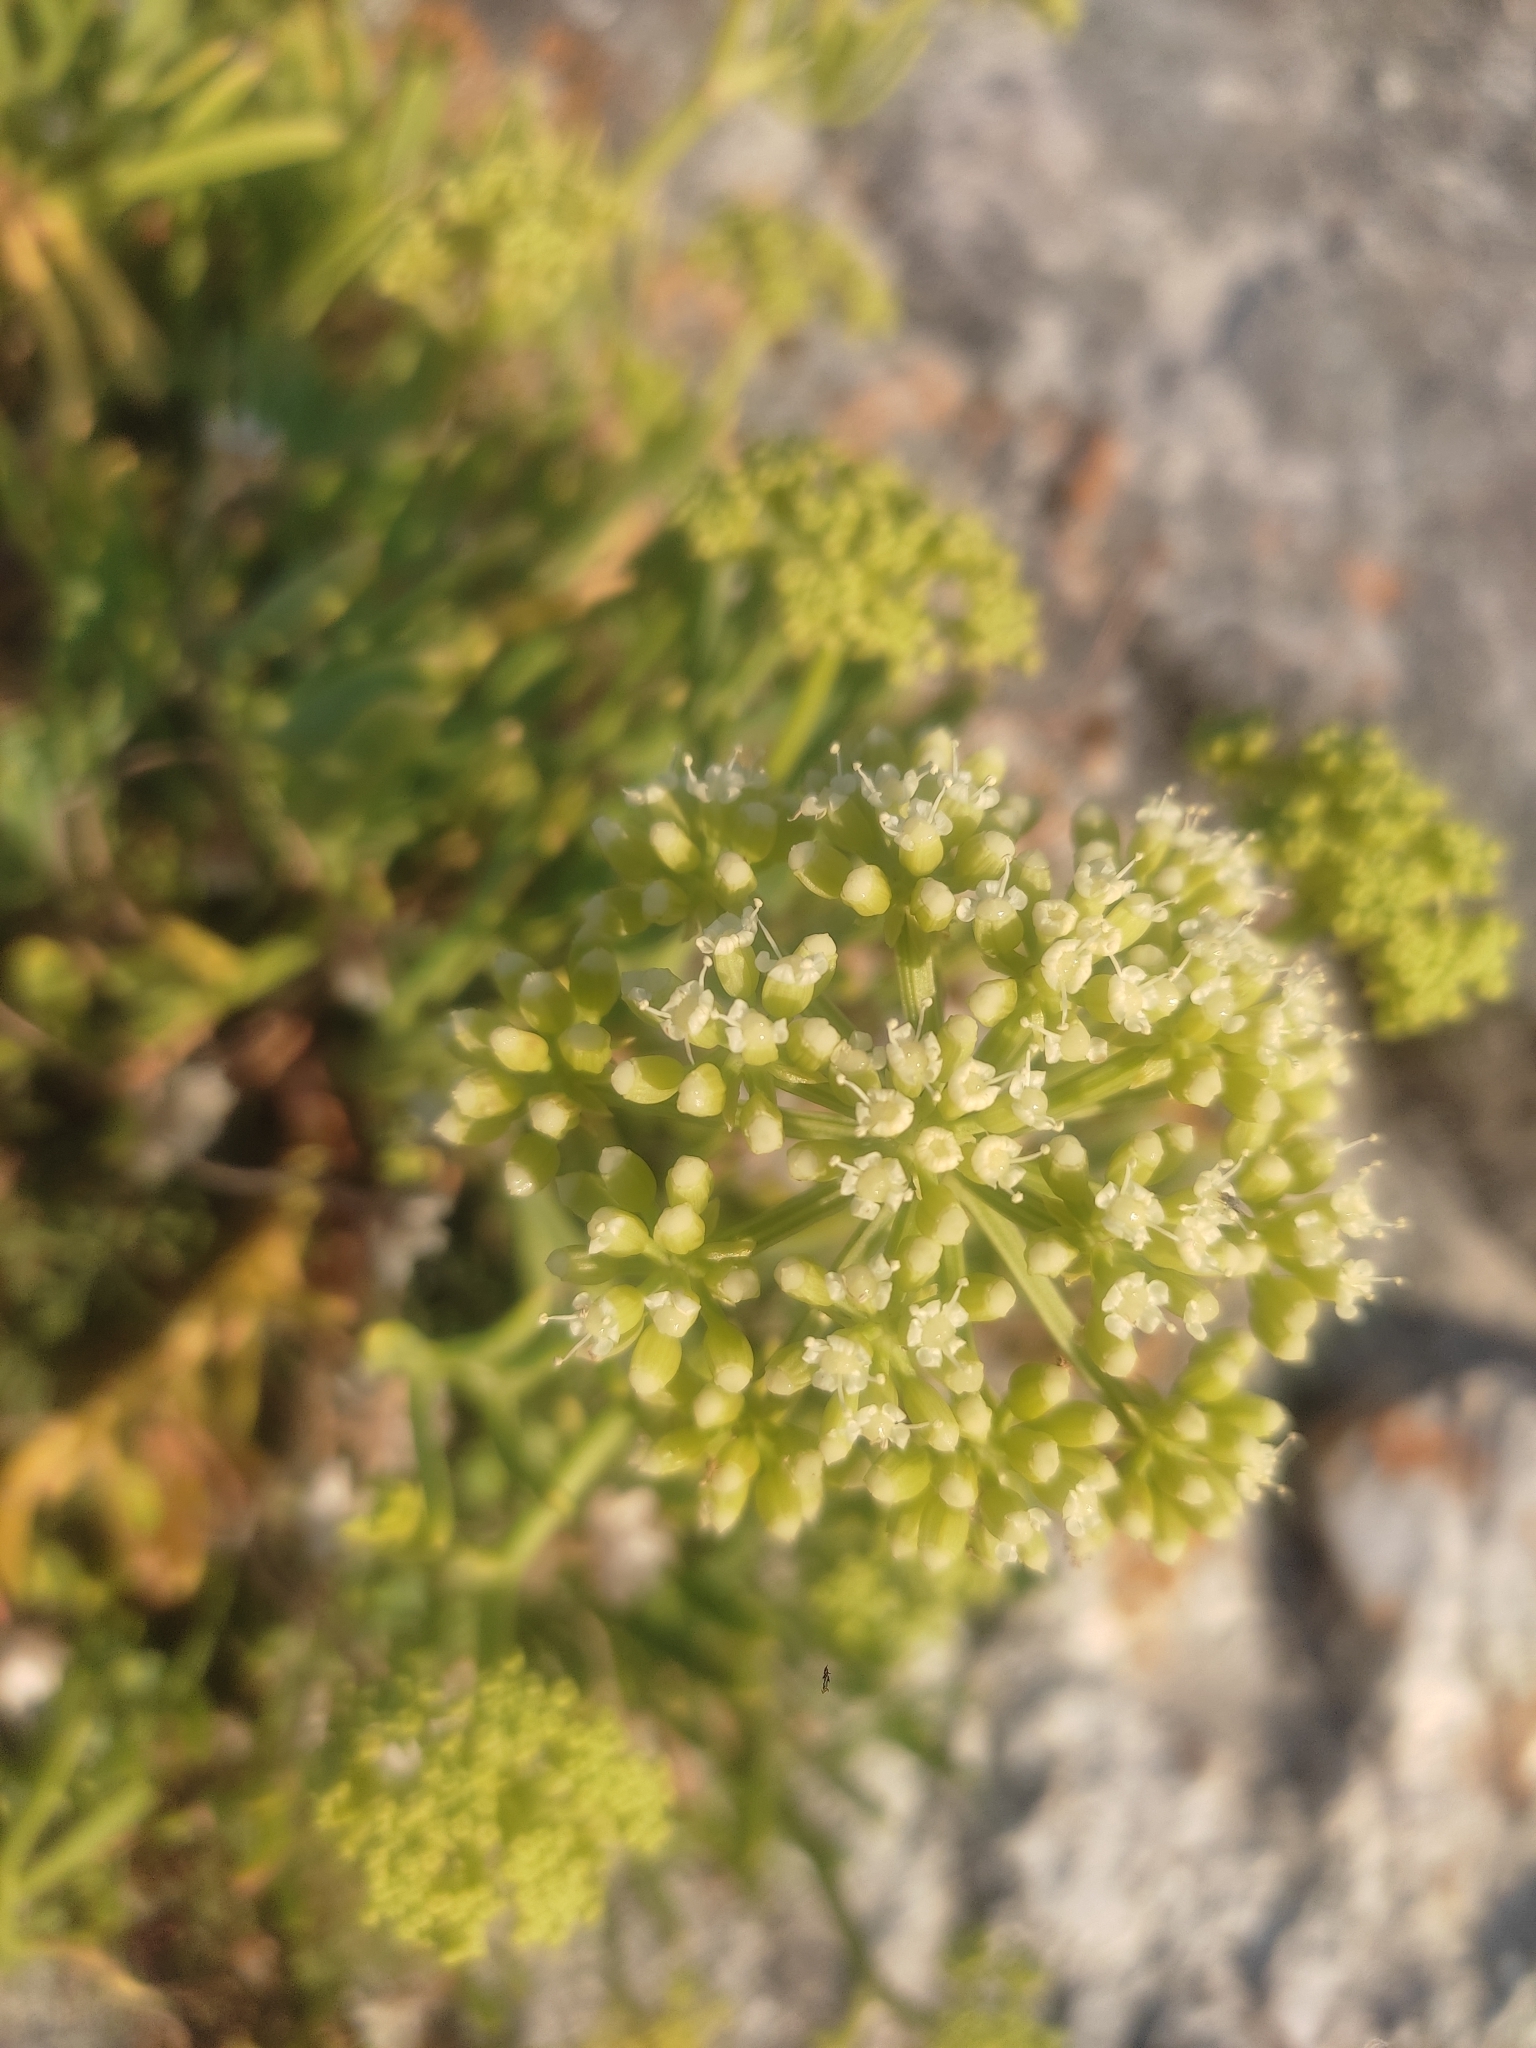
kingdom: Plantae
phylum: Tracheophyta
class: Magnoliopsida
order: Apiales
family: Apiaceae
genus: Crithmum
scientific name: Crithmum maritimum
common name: Rock samphire
